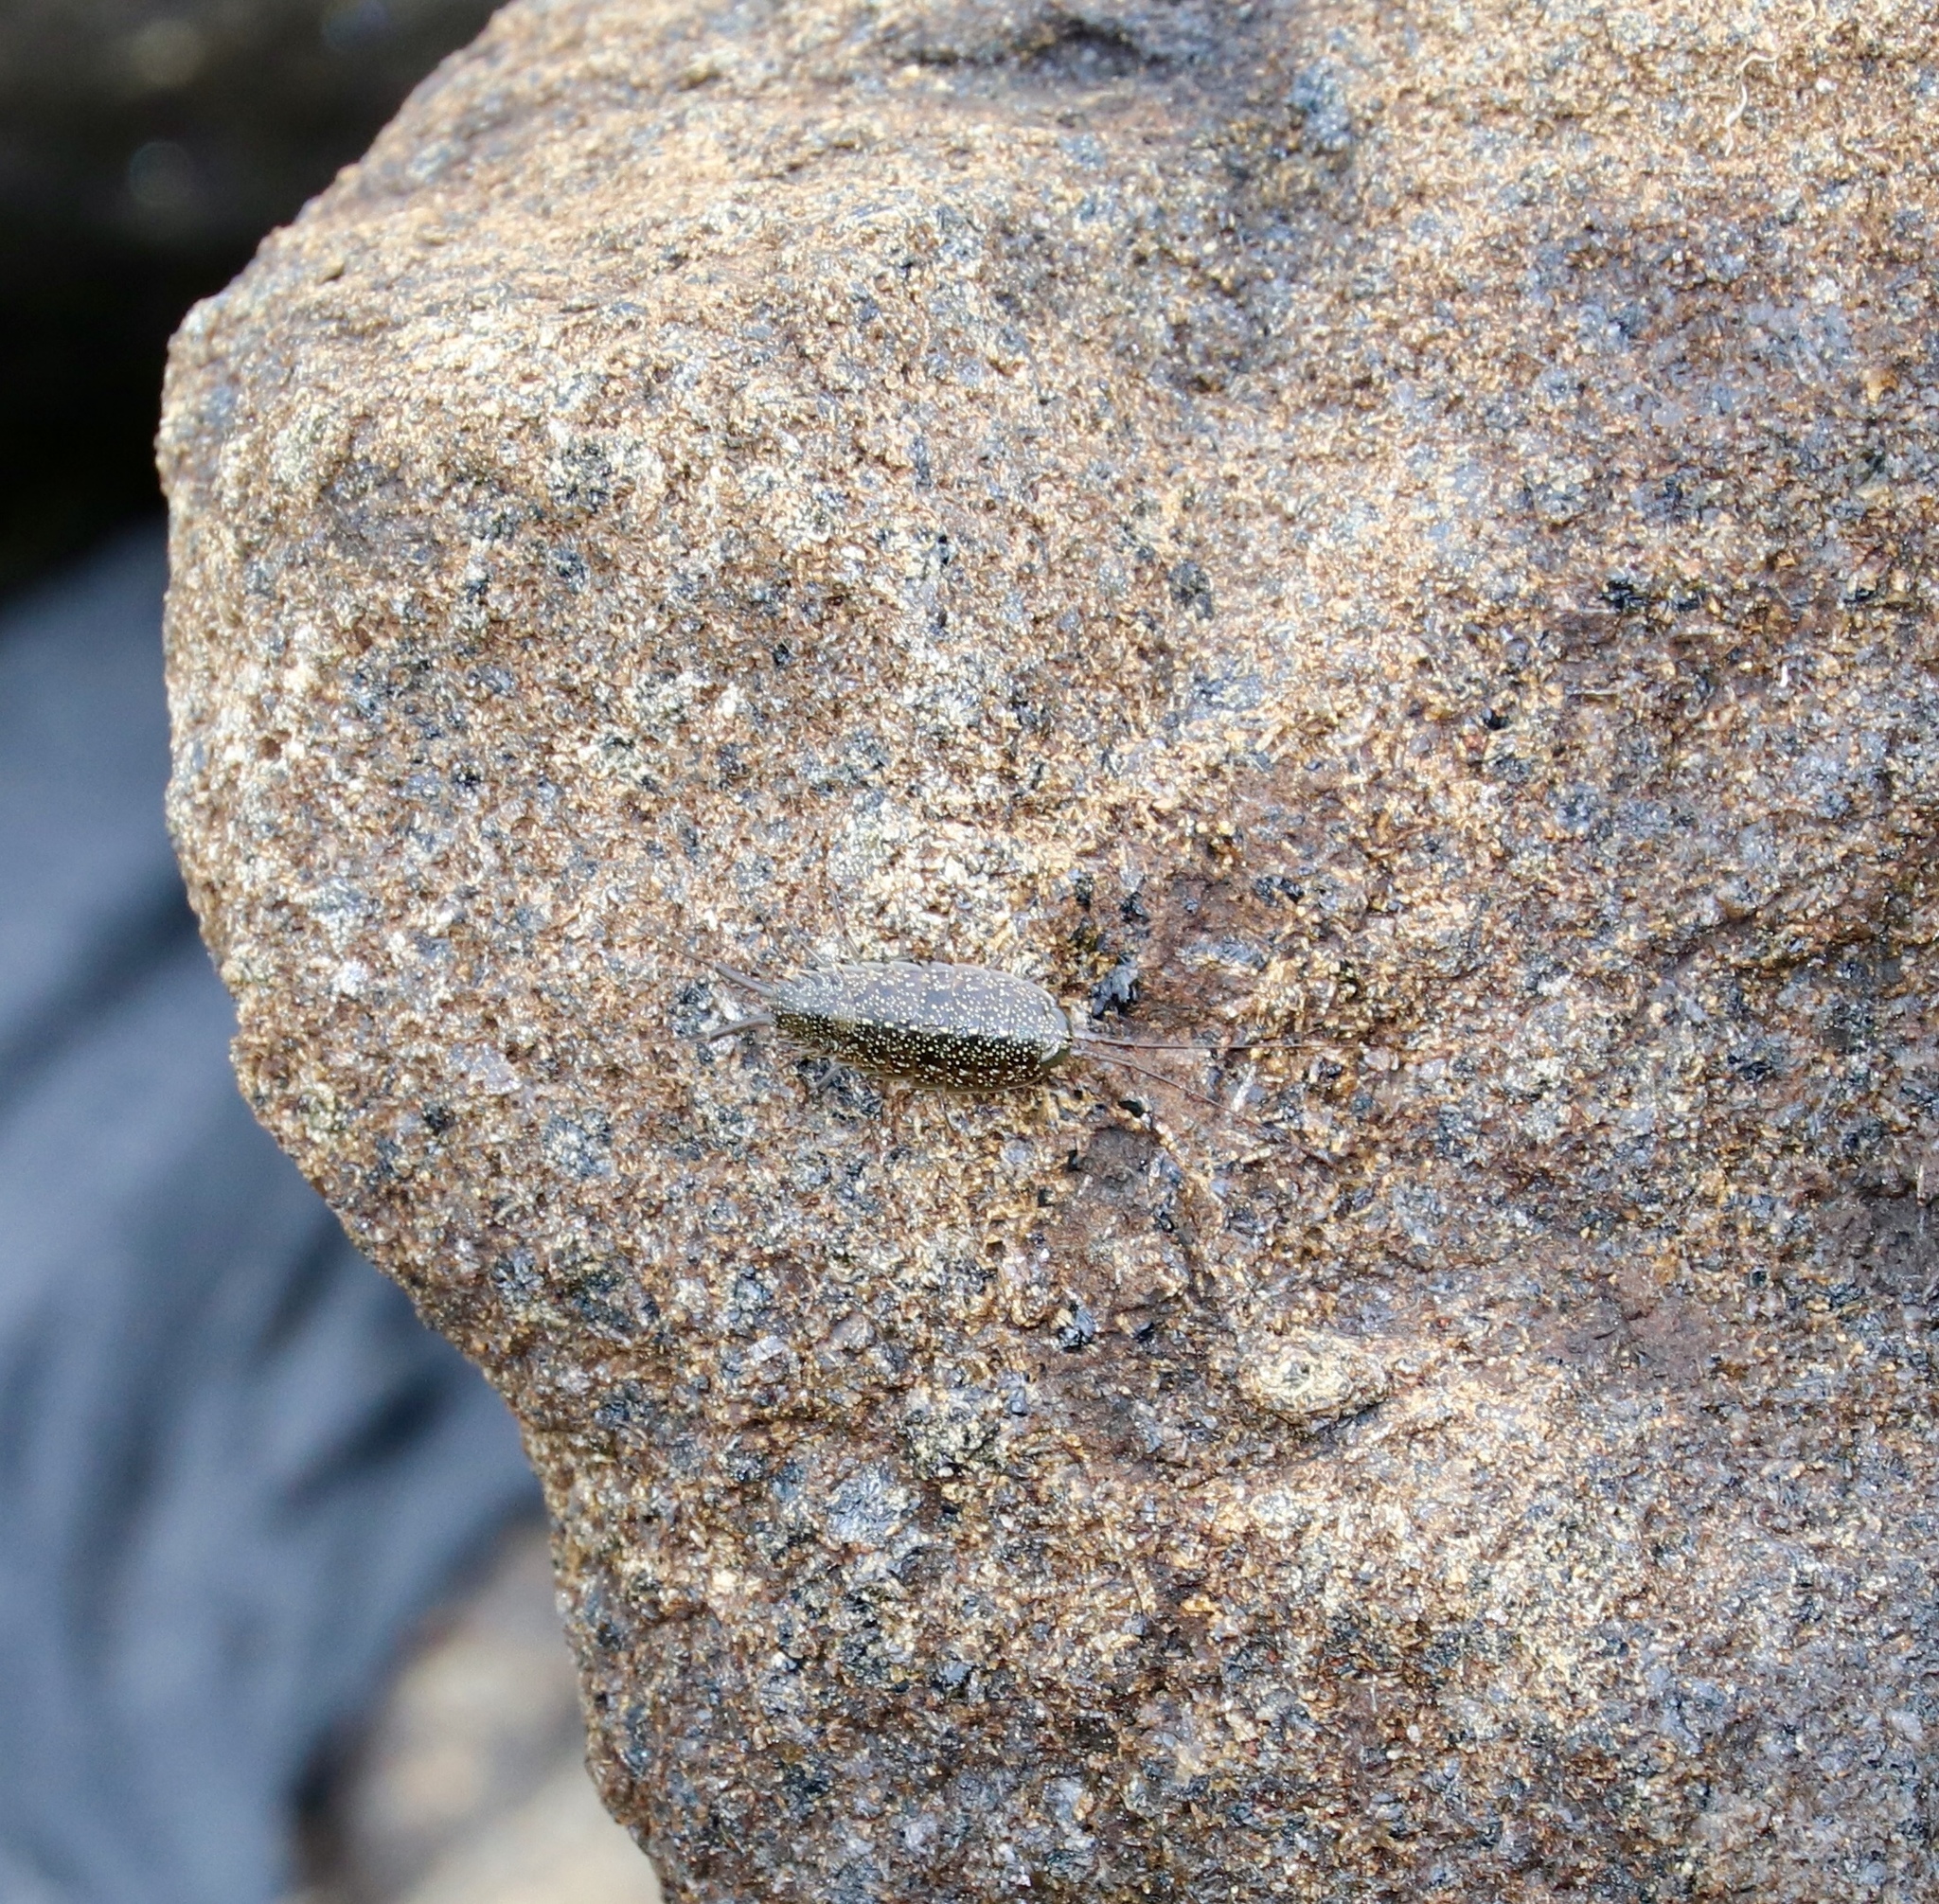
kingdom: Animalia
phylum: Arthropoda
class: Malacostraca
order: Isopoda
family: Ligiidae
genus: Ligia
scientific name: Ligia exotica
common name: Wharf roach
